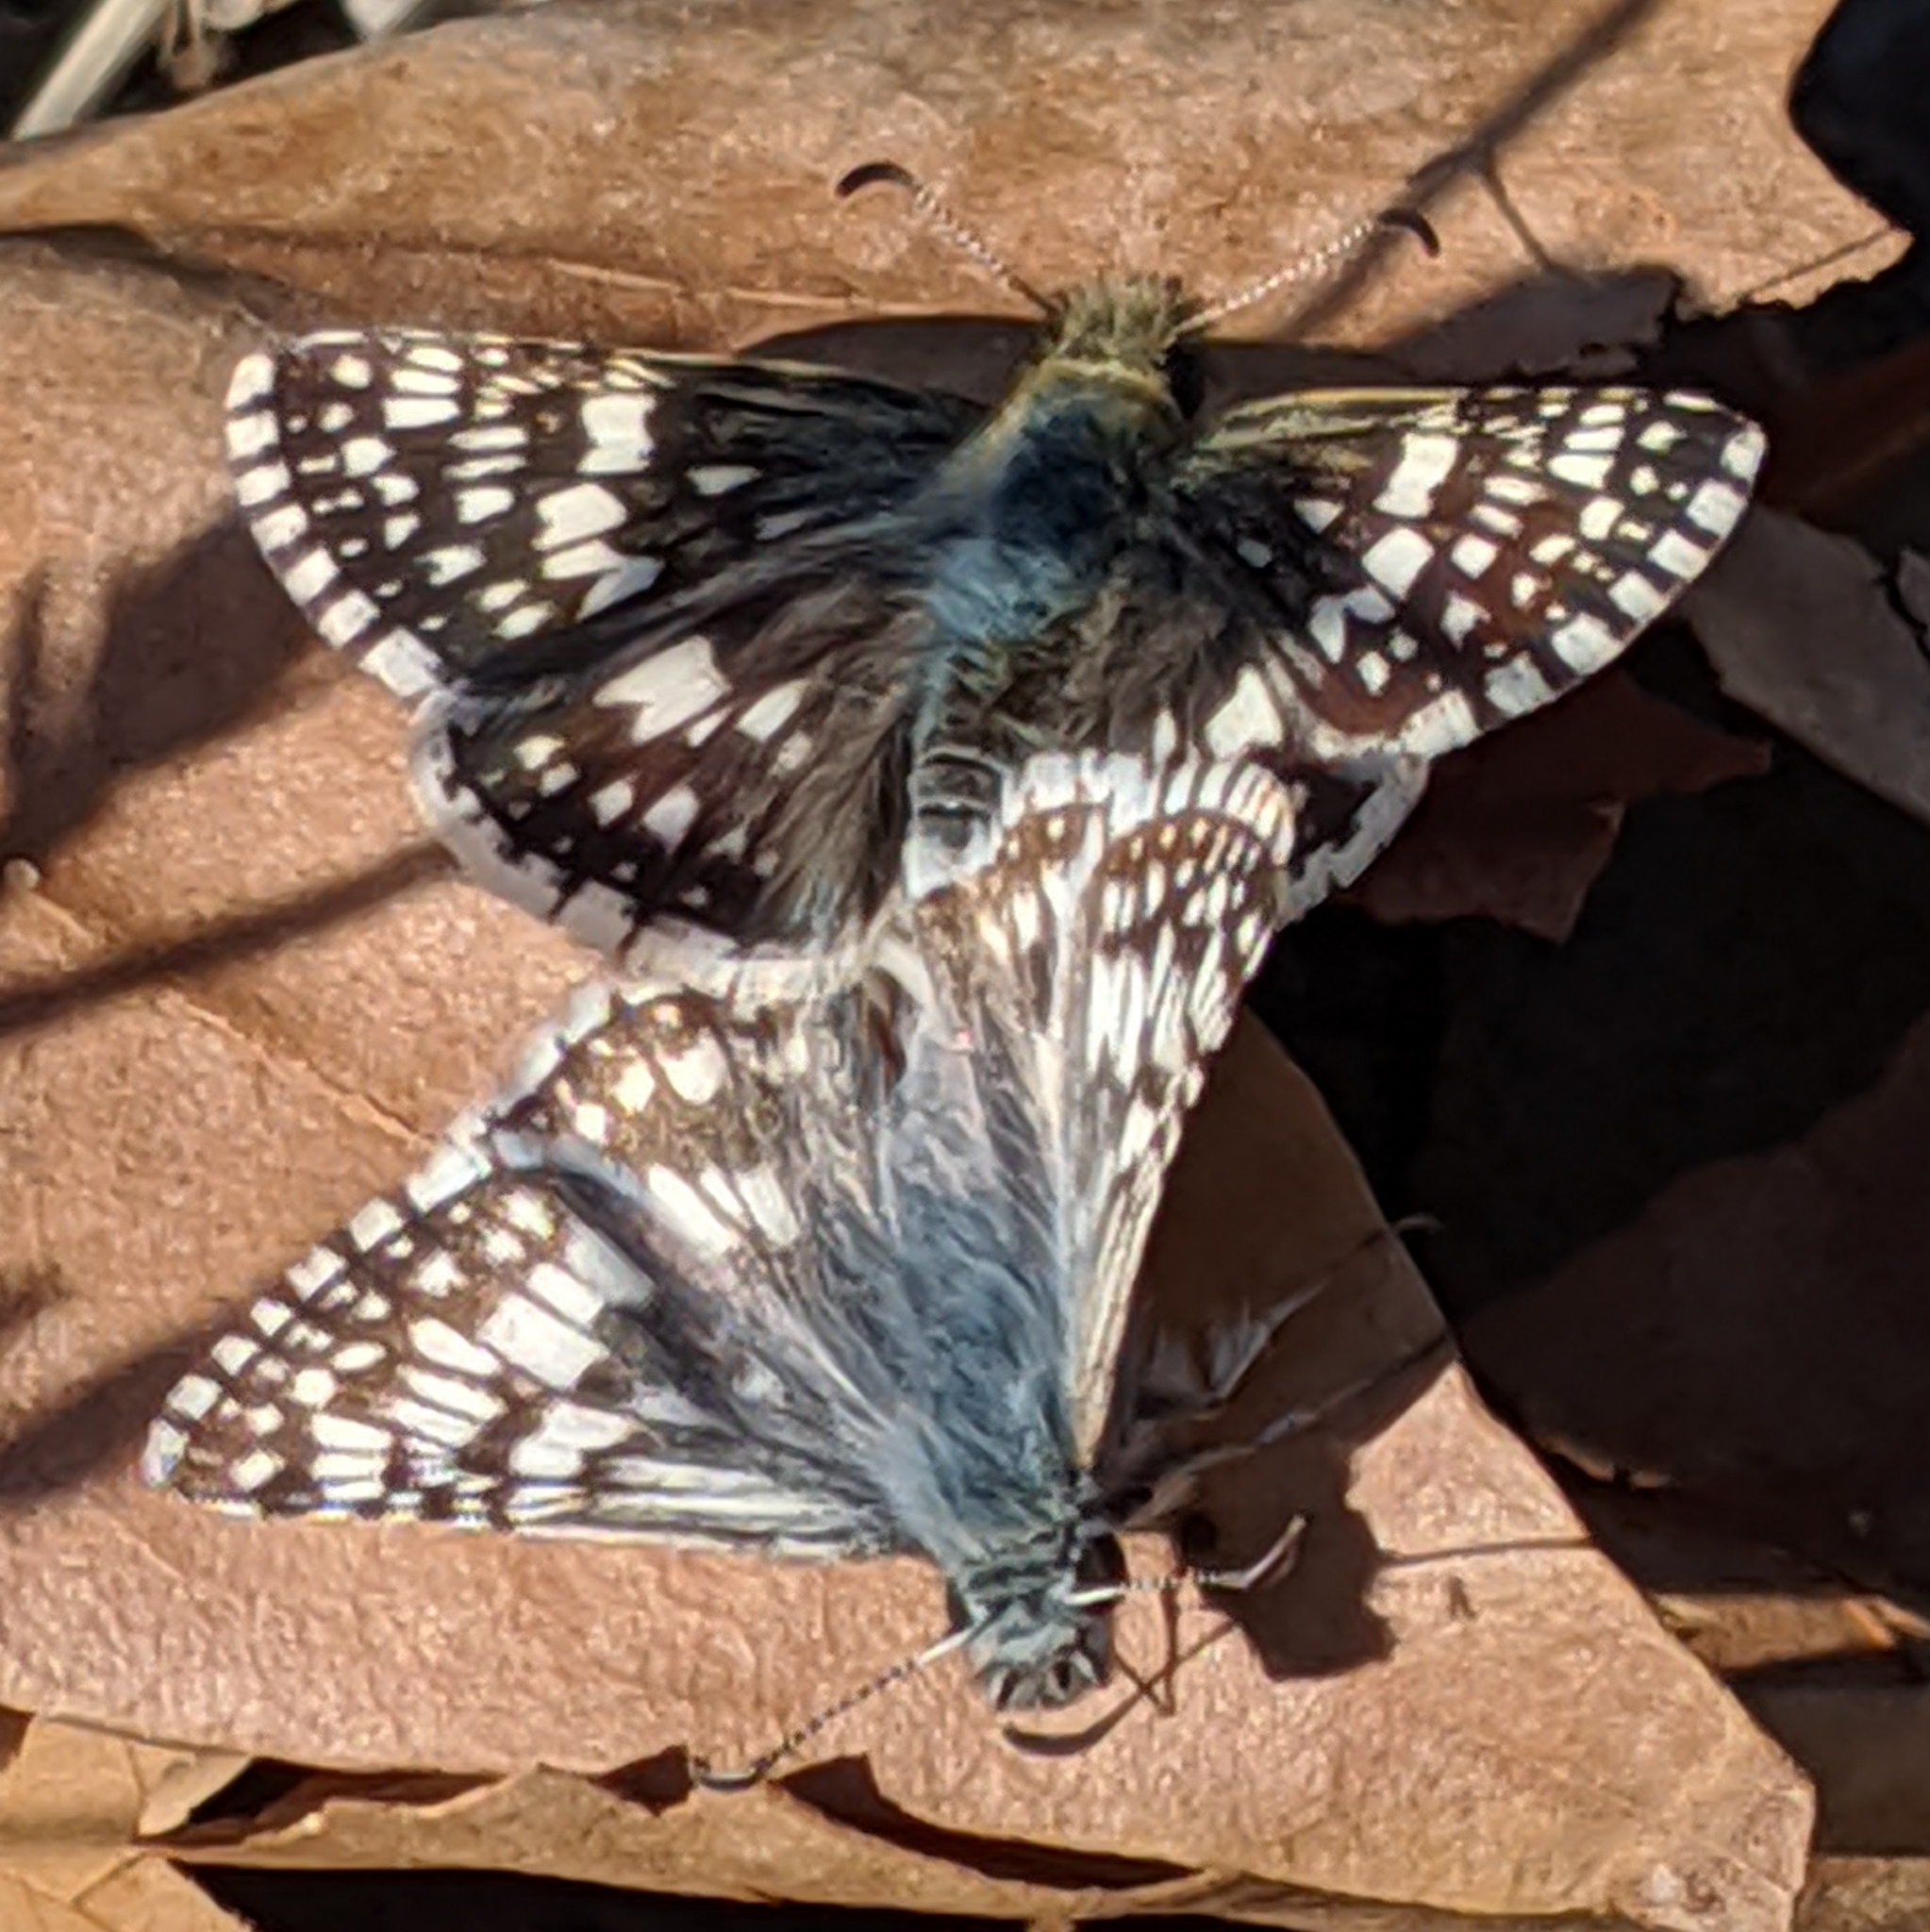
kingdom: Animalia
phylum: Arthropoda
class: Insecta
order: Lepidoptera
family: Hesperiidae
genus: Burnsius
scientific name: Burnsius communis
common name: Common checkered-skipper
